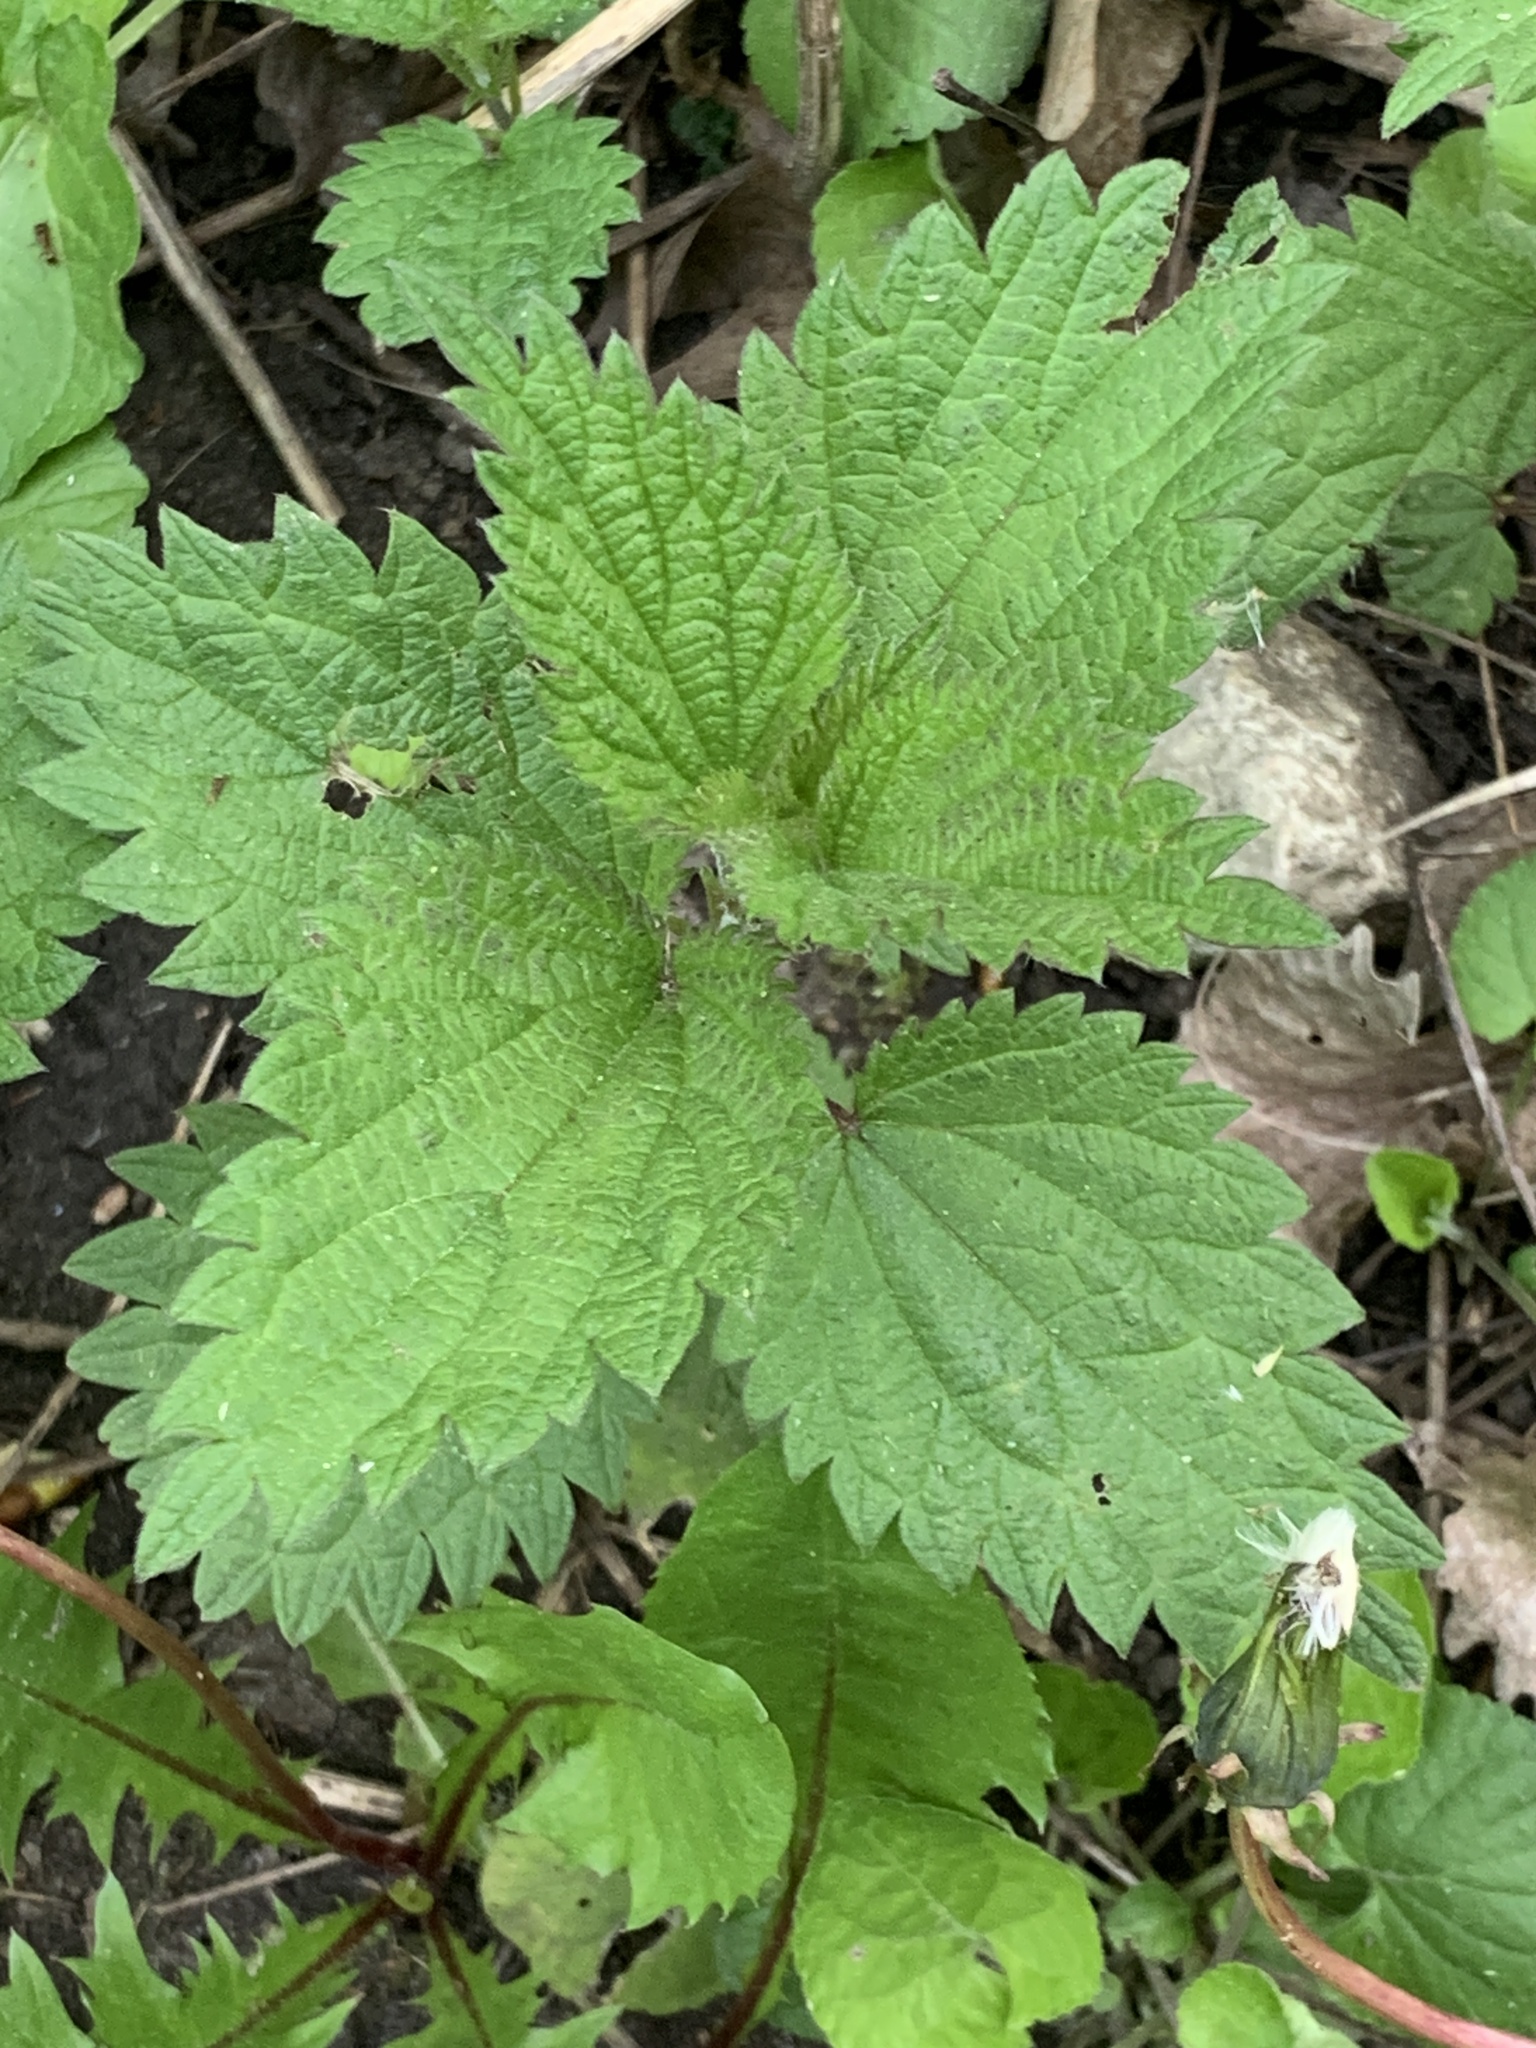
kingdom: Plantae
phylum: Tracheophyta
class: Magnoliopsida
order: Rosales
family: Urticaceae
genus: Urtica
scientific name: Urtica dioica
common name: Common nettle
